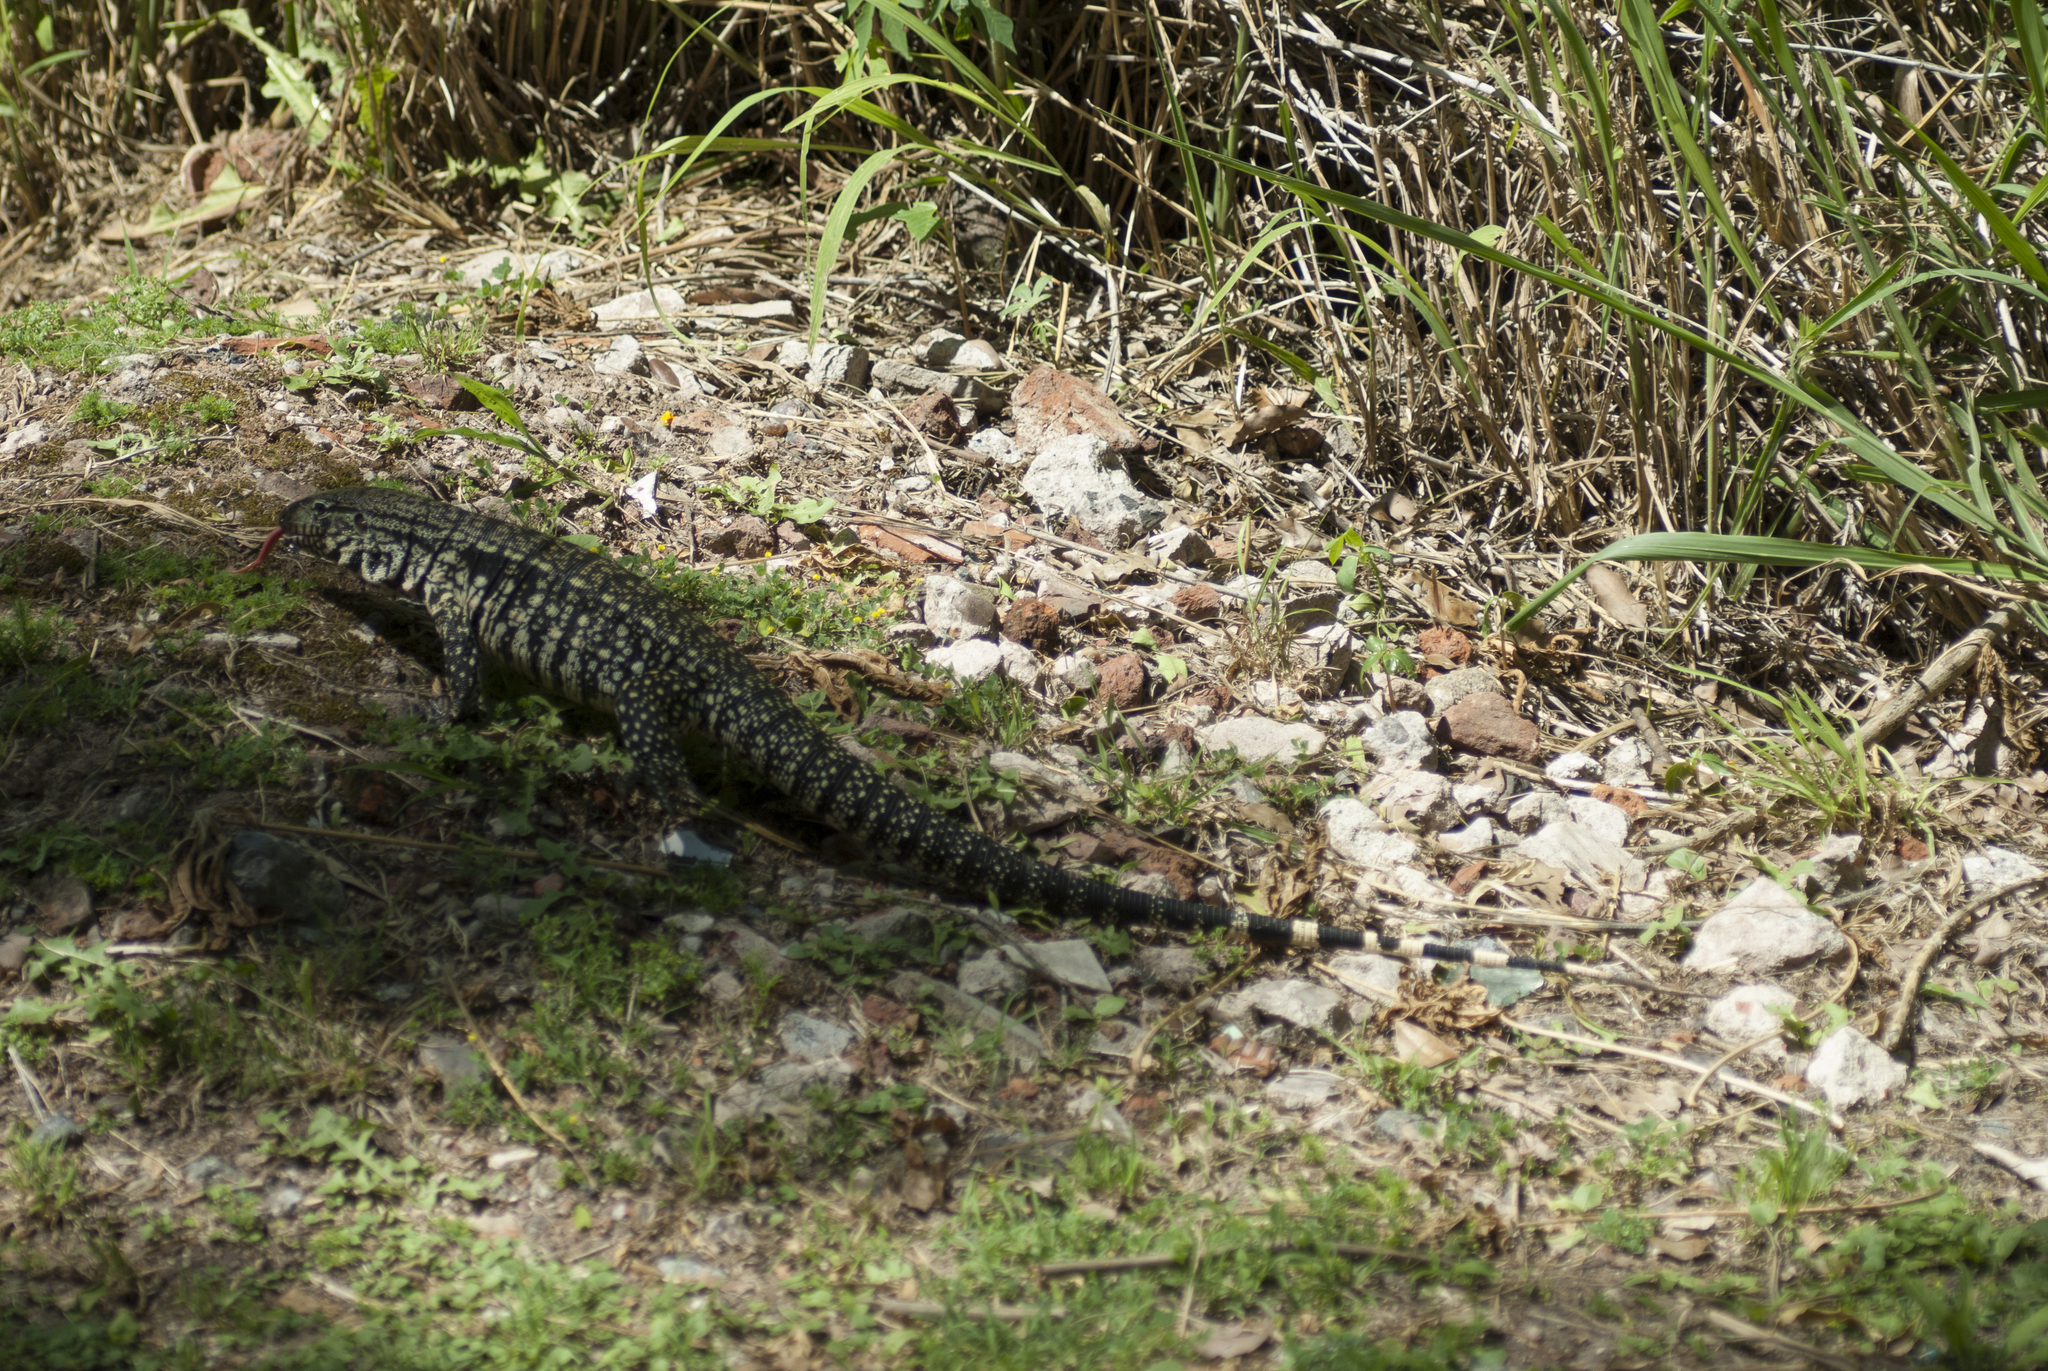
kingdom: Animalia
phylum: Chordata
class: Squamata
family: Teiidae
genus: Salvator
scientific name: Salvator merianae
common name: Argentine black and white tegu
